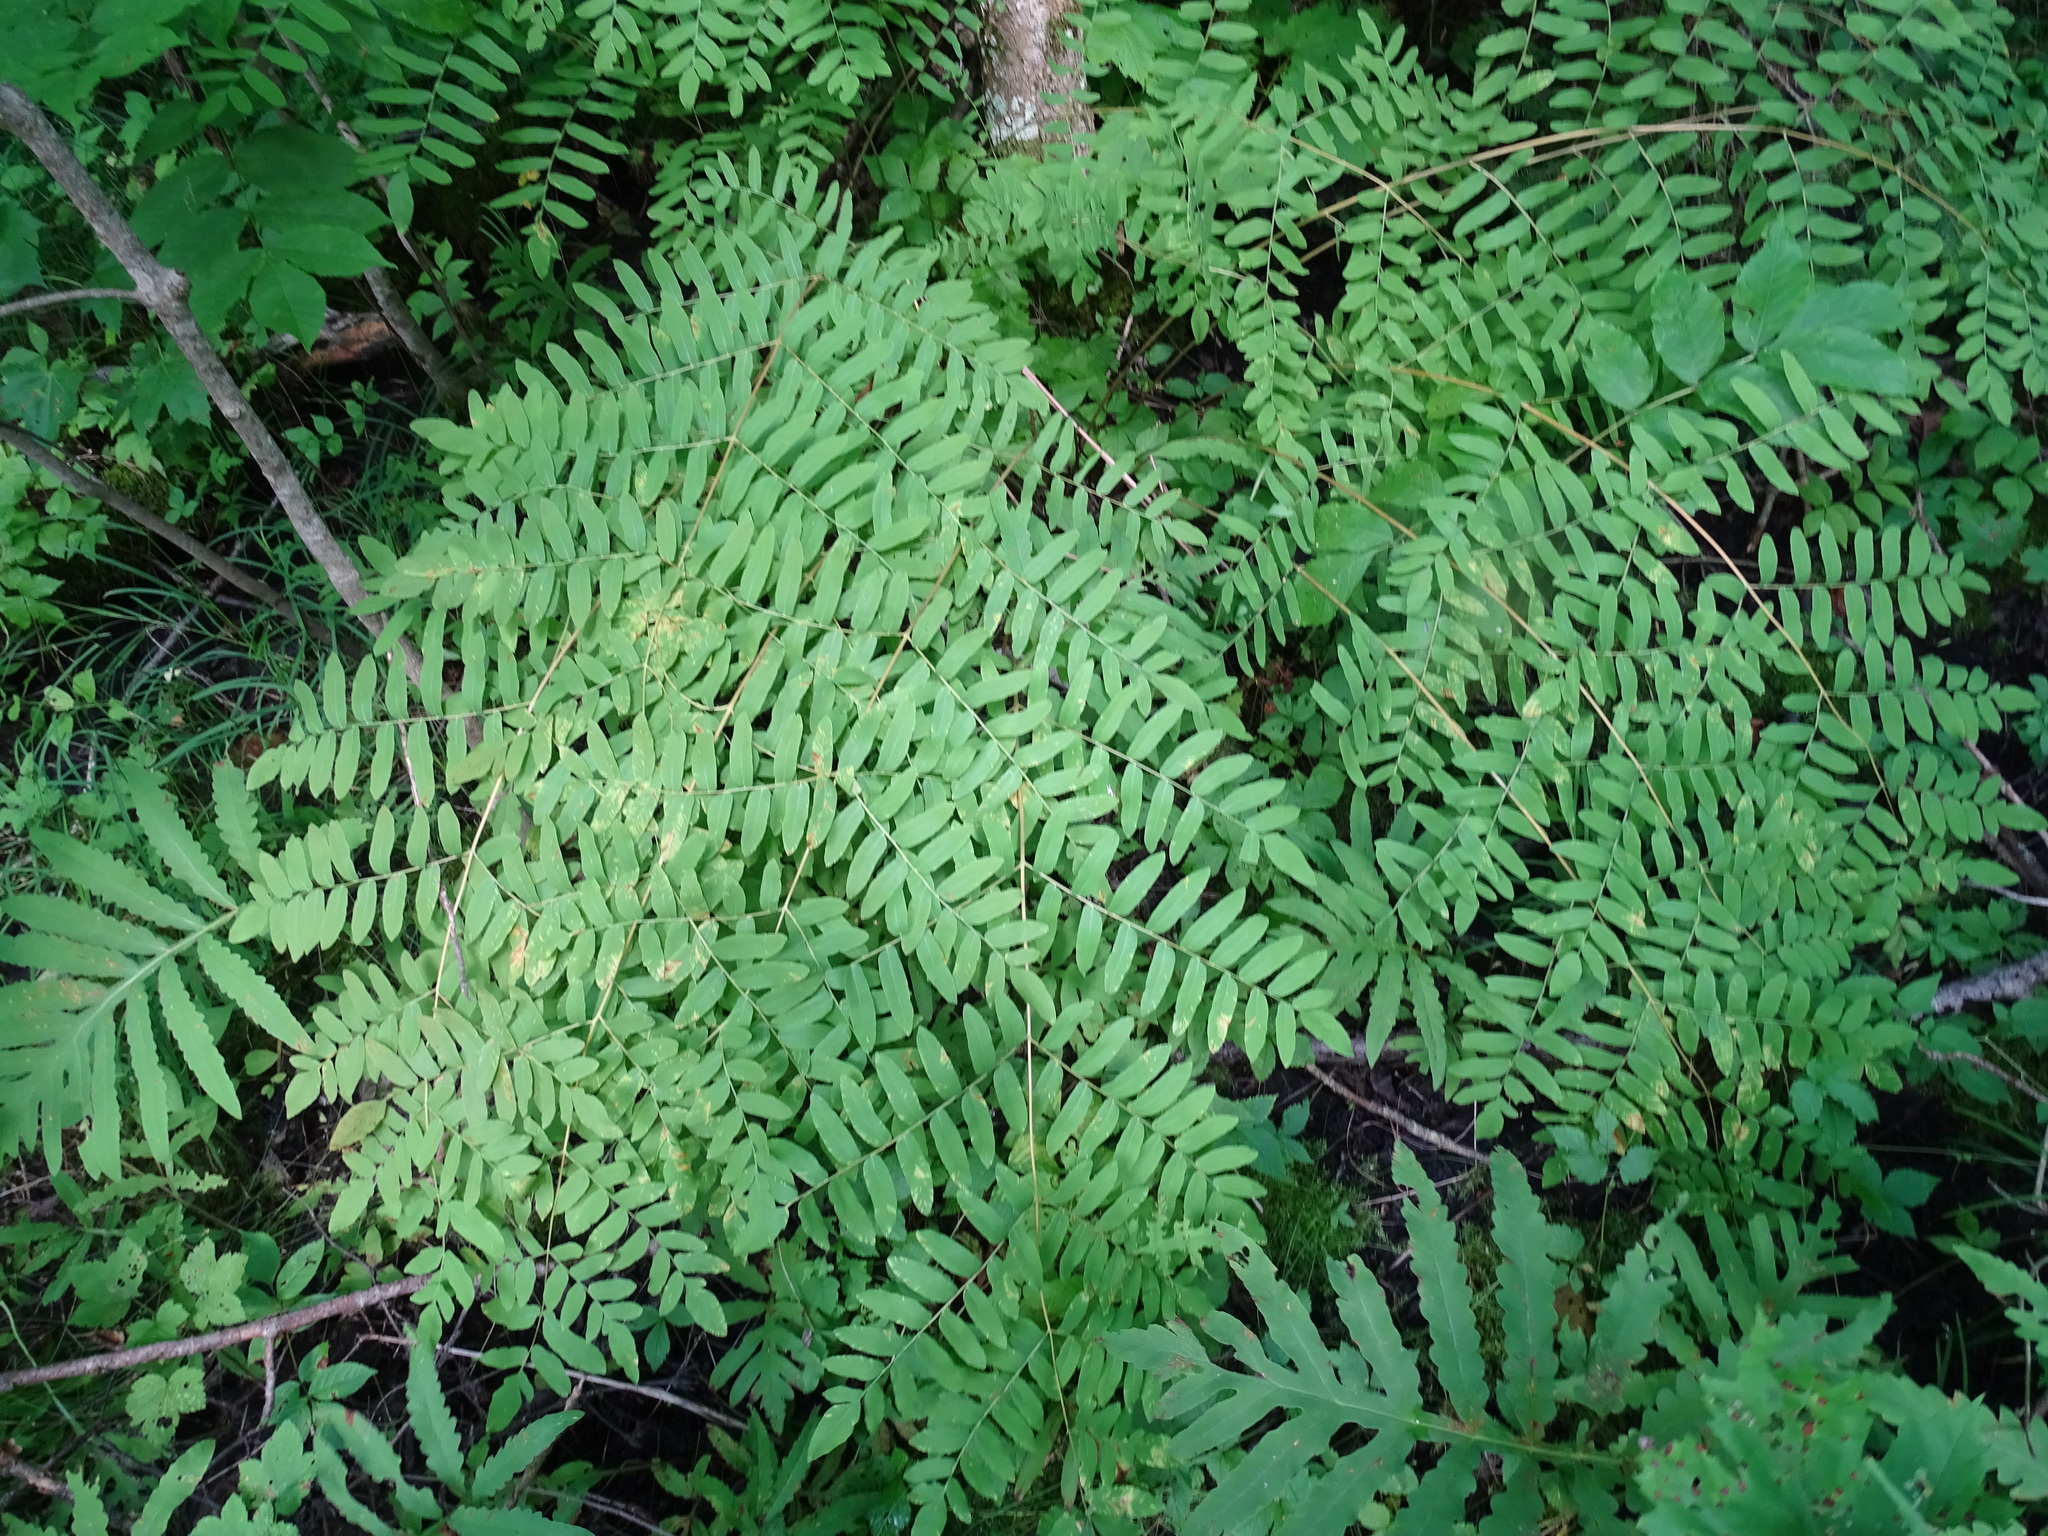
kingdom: Plantae
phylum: Tracheophyta
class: Polypodiopsida
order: Osmundales
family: Osmundaceae
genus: Osmunda
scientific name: Osmunda spectabilis
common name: American royal fern
